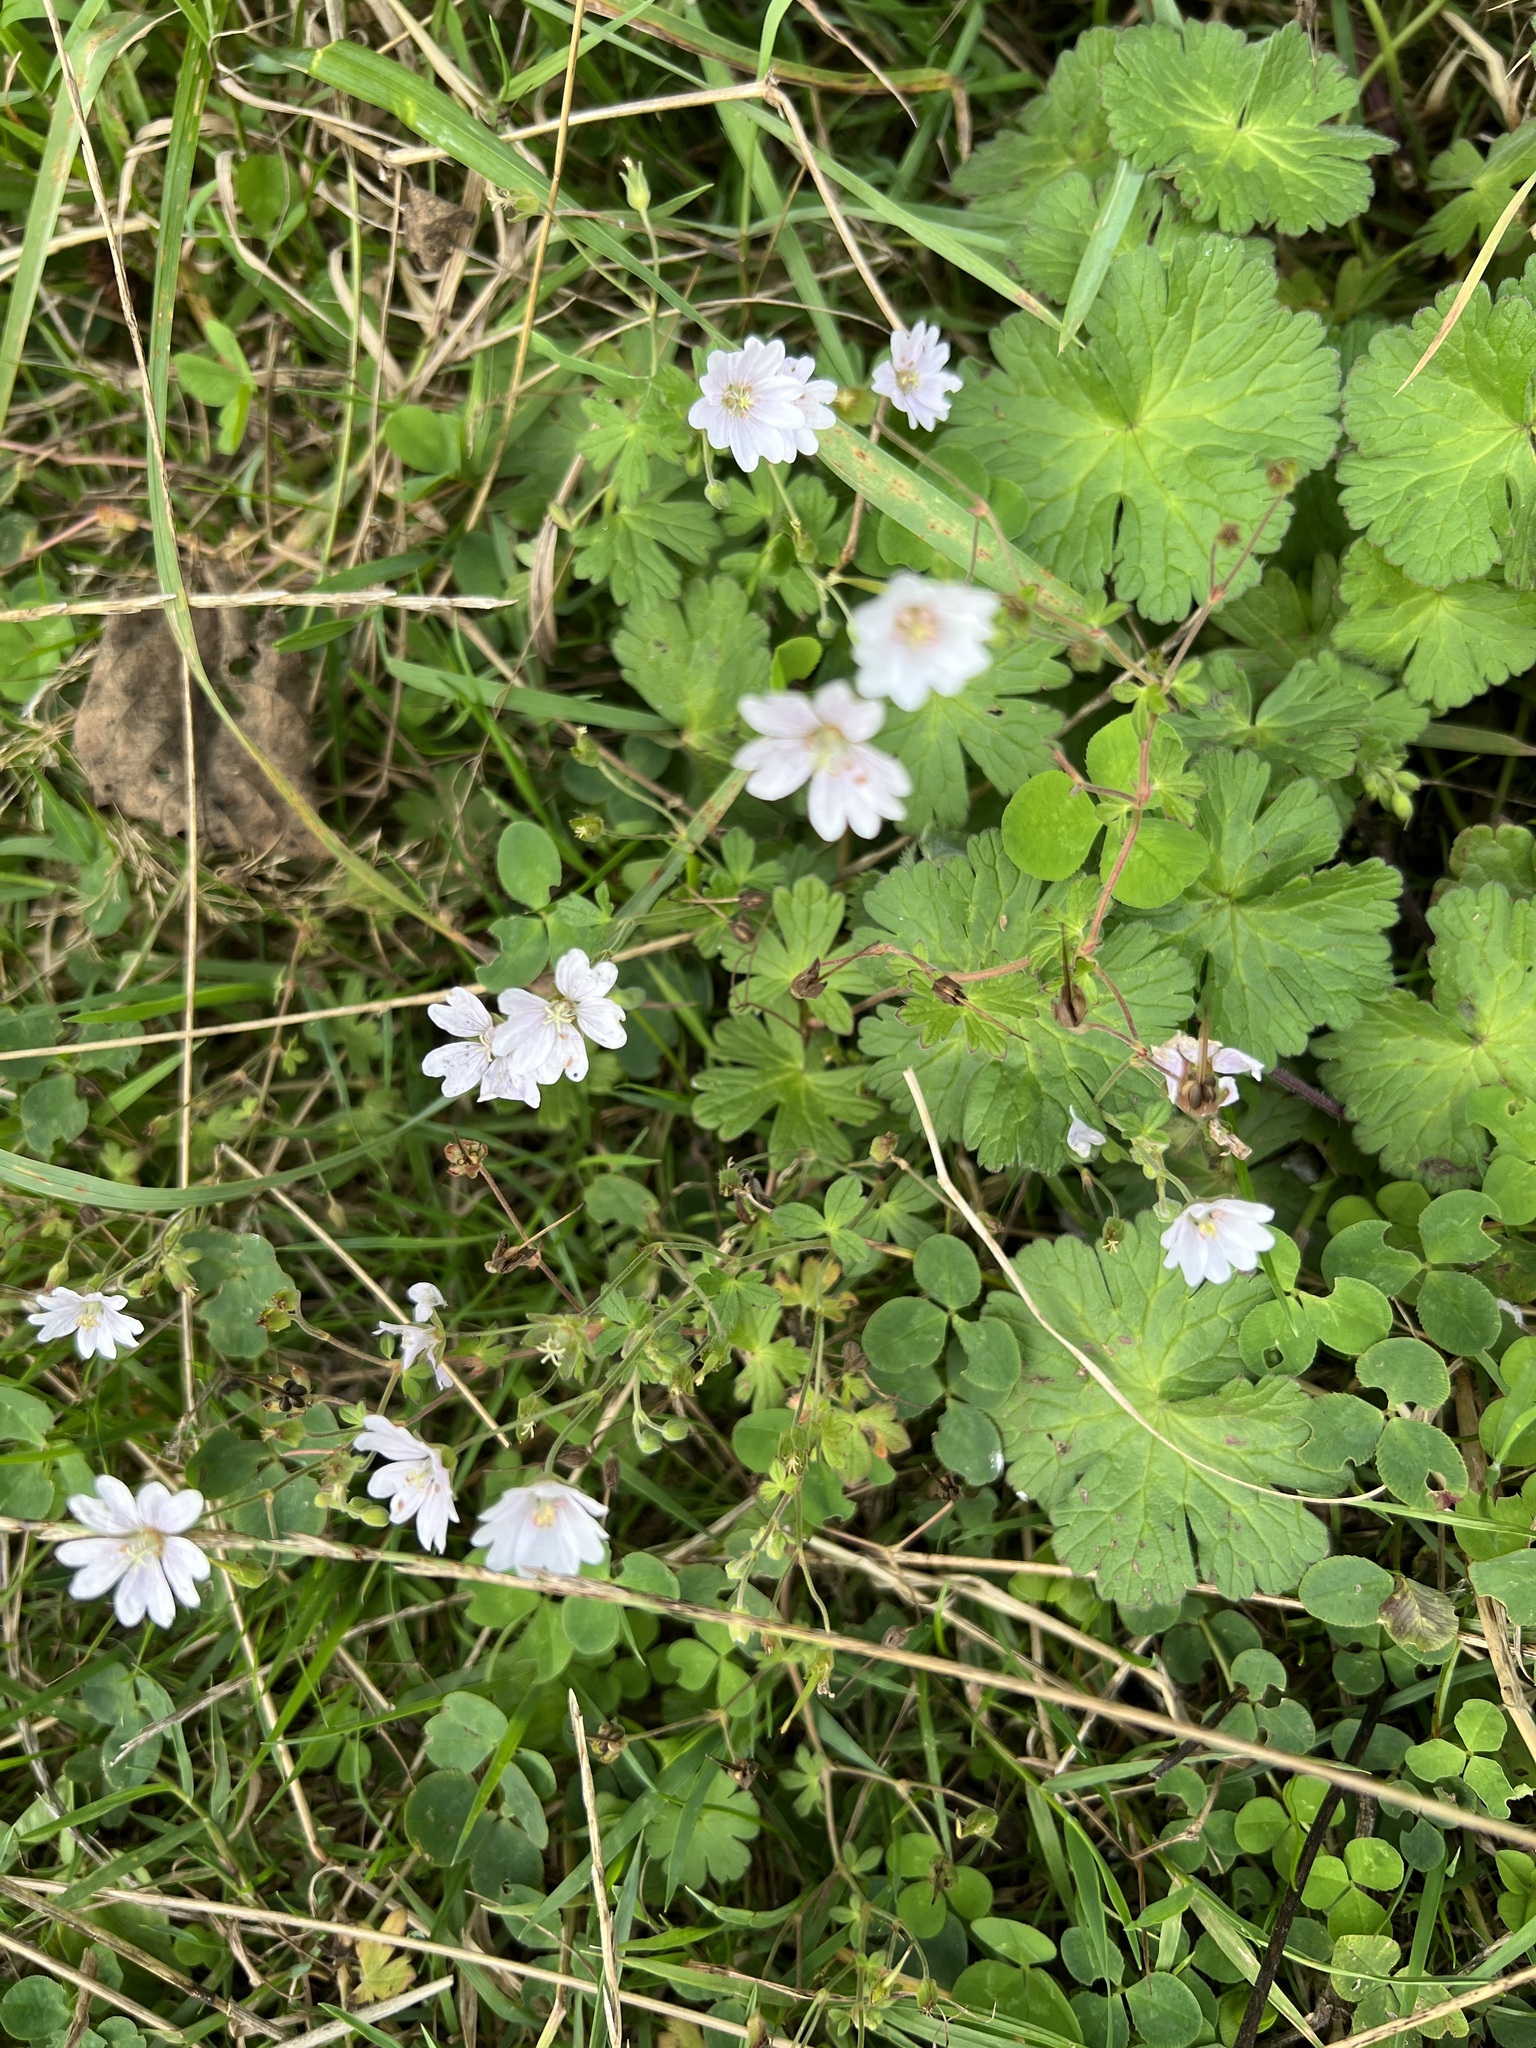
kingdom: Plantae
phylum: Tracheophyta
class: Magnoliopsida
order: Geraniales
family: Geraniaceae
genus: Geranium
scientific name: Geranium pyrenaicum
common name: Hedgerow crane's-bill
